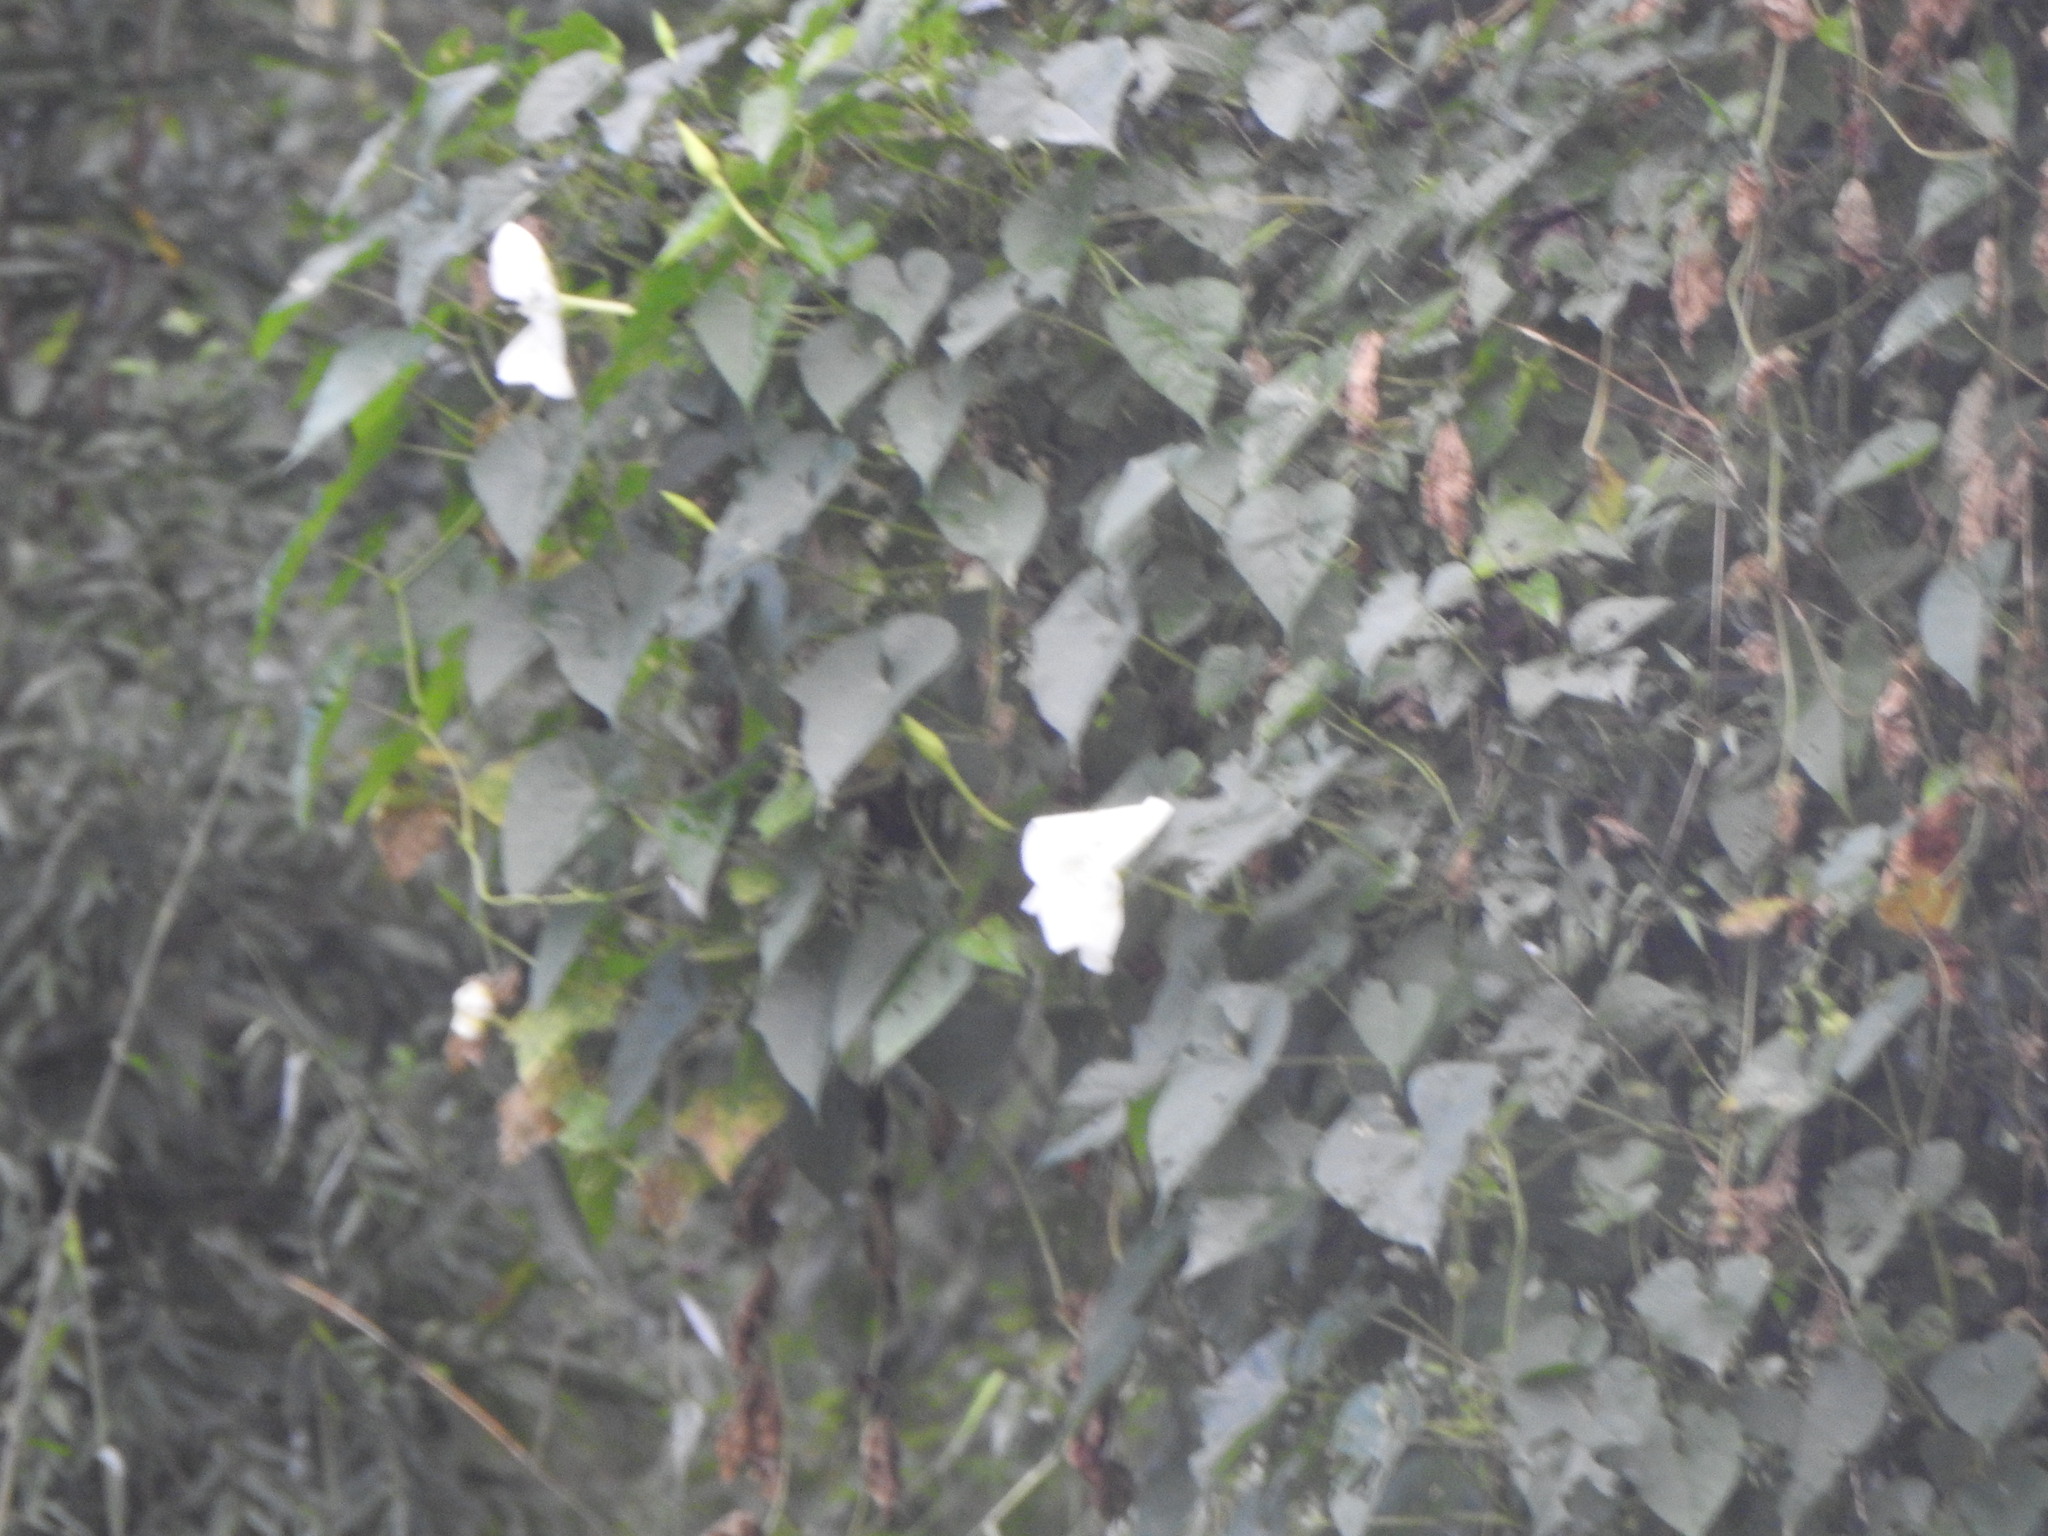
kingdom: Plantae
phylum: Tracheophyta
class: Magnoliopsida
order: Solanales
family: Convolvulaceae
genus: Ipomoea
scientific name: Ipomoea alba
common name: Moonflower
